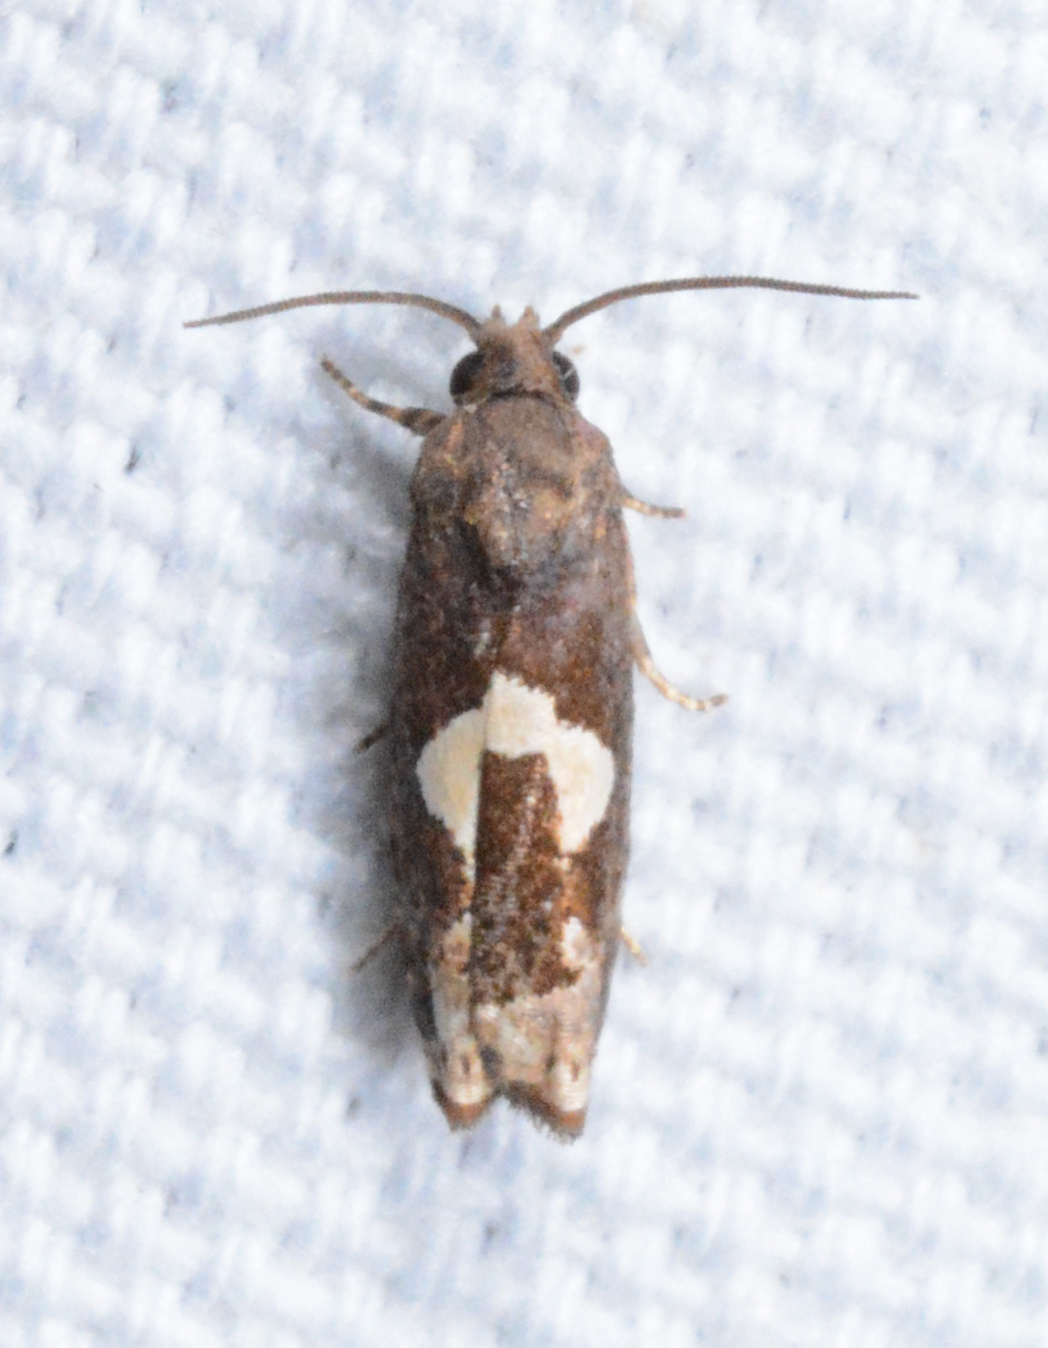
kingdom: Animalia
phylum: Arthropoda
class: Insecta
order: Lepidoptera
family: Tortricidae
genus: Epiblema
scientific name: Epiblema otiosana
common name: Bidens borer moth
